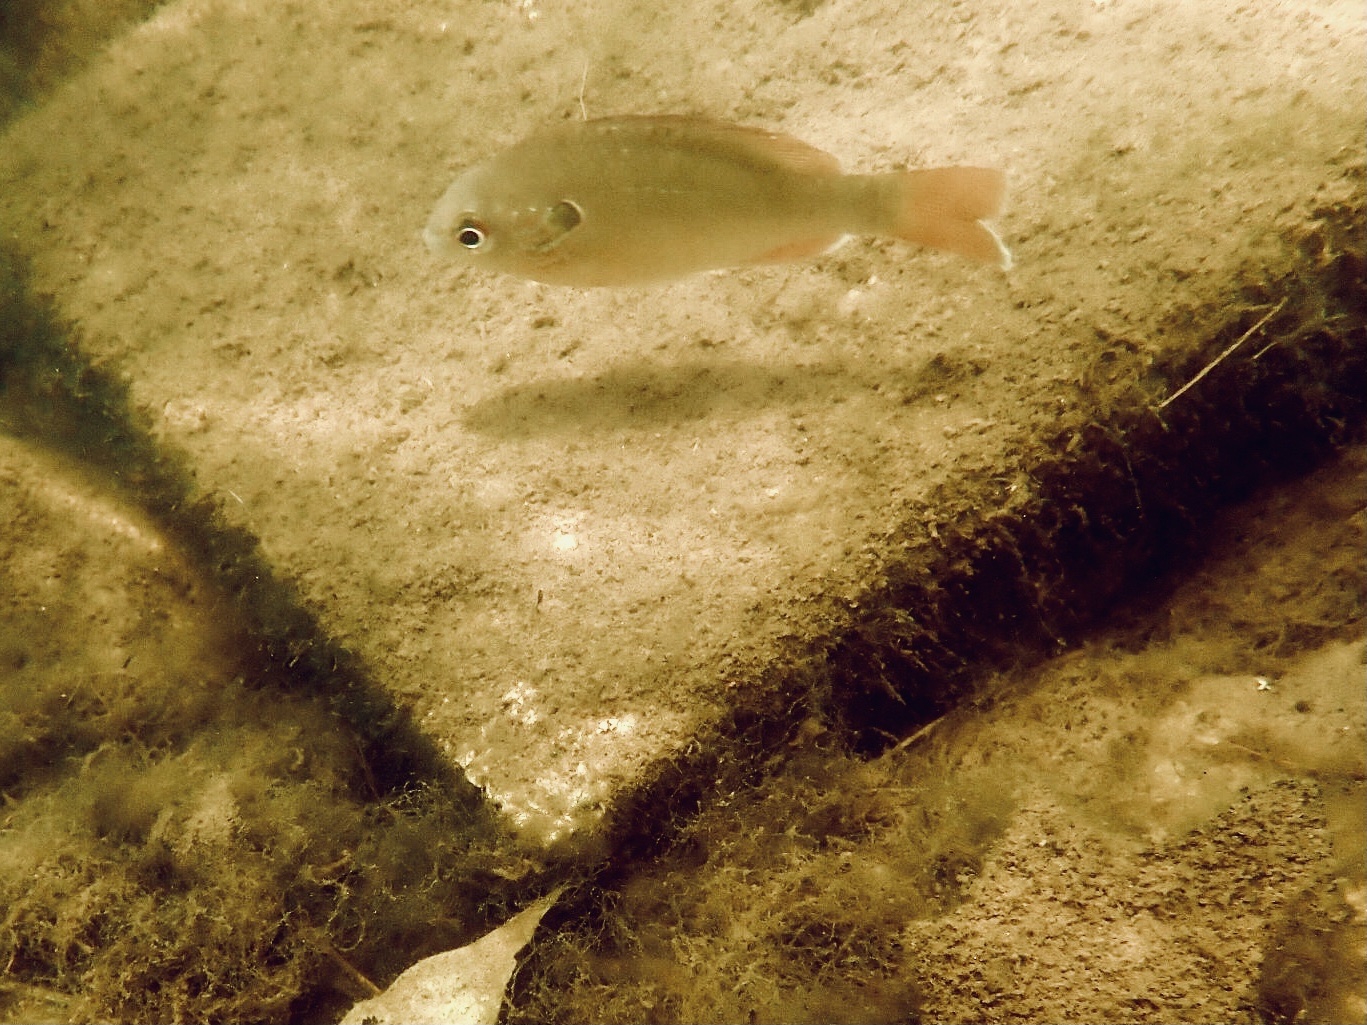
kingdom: Animalia
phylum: Chordata
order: Perciformes
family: Centrarchidae
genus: Lepomis
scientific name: Lepomis megalotis
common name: Longear sunfish
